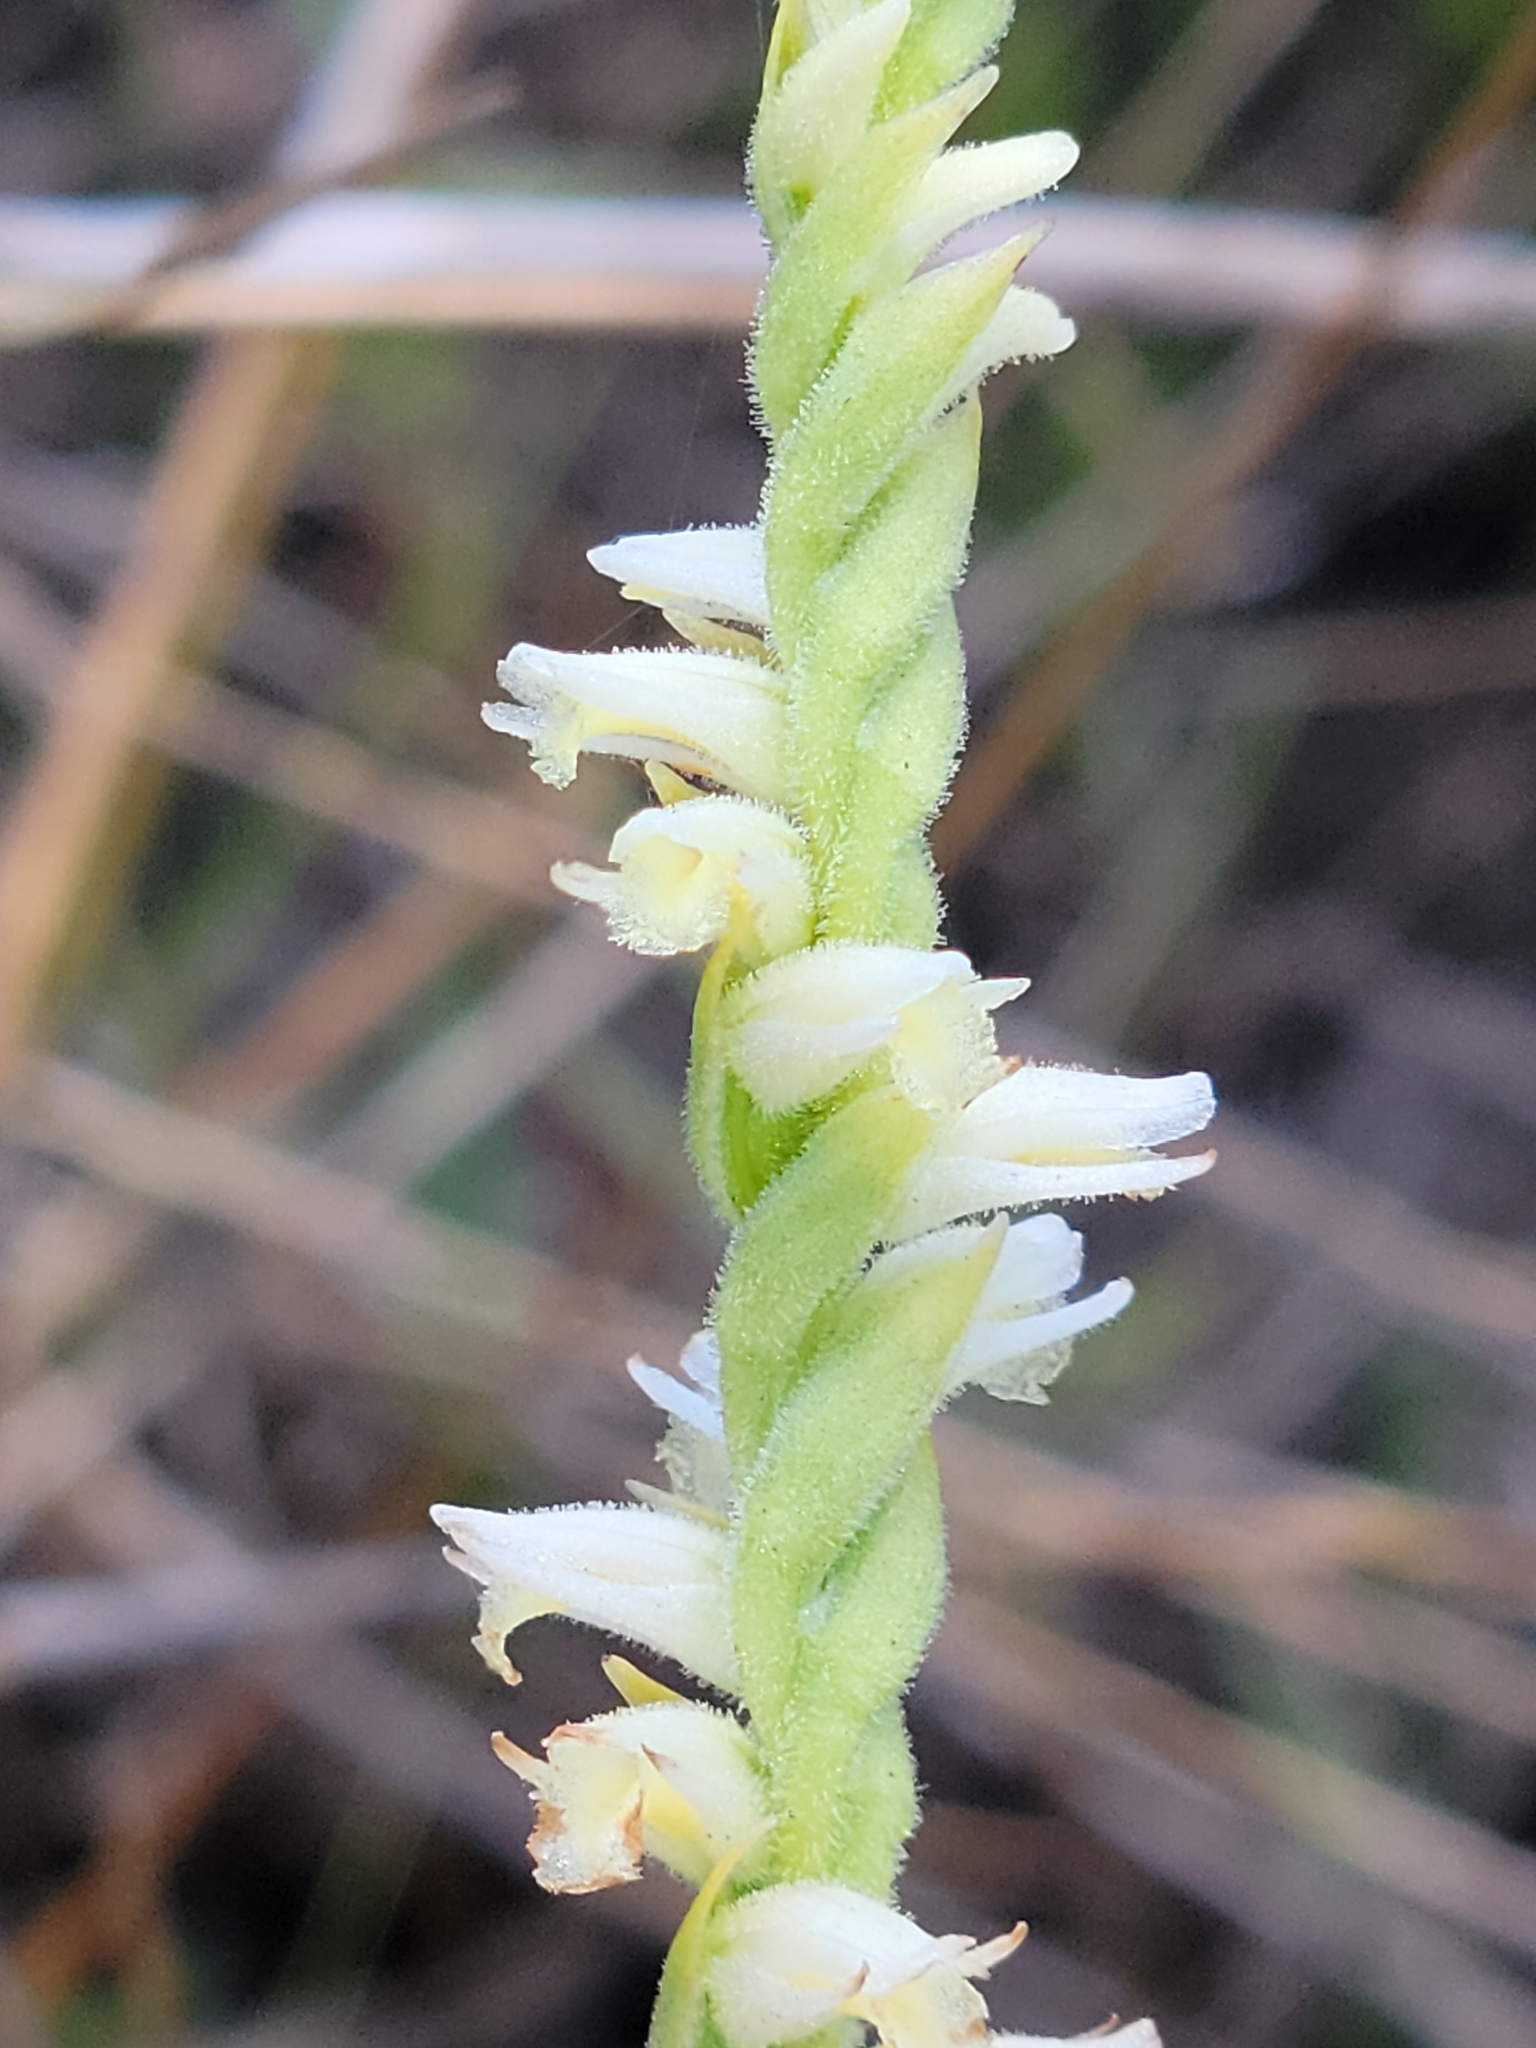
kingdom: Plantae
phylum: Tracheophyta
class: Liliopsida
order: Asparagales
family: Orchidaceae
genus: Spiranthes
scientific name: Spiranthes laciniata
